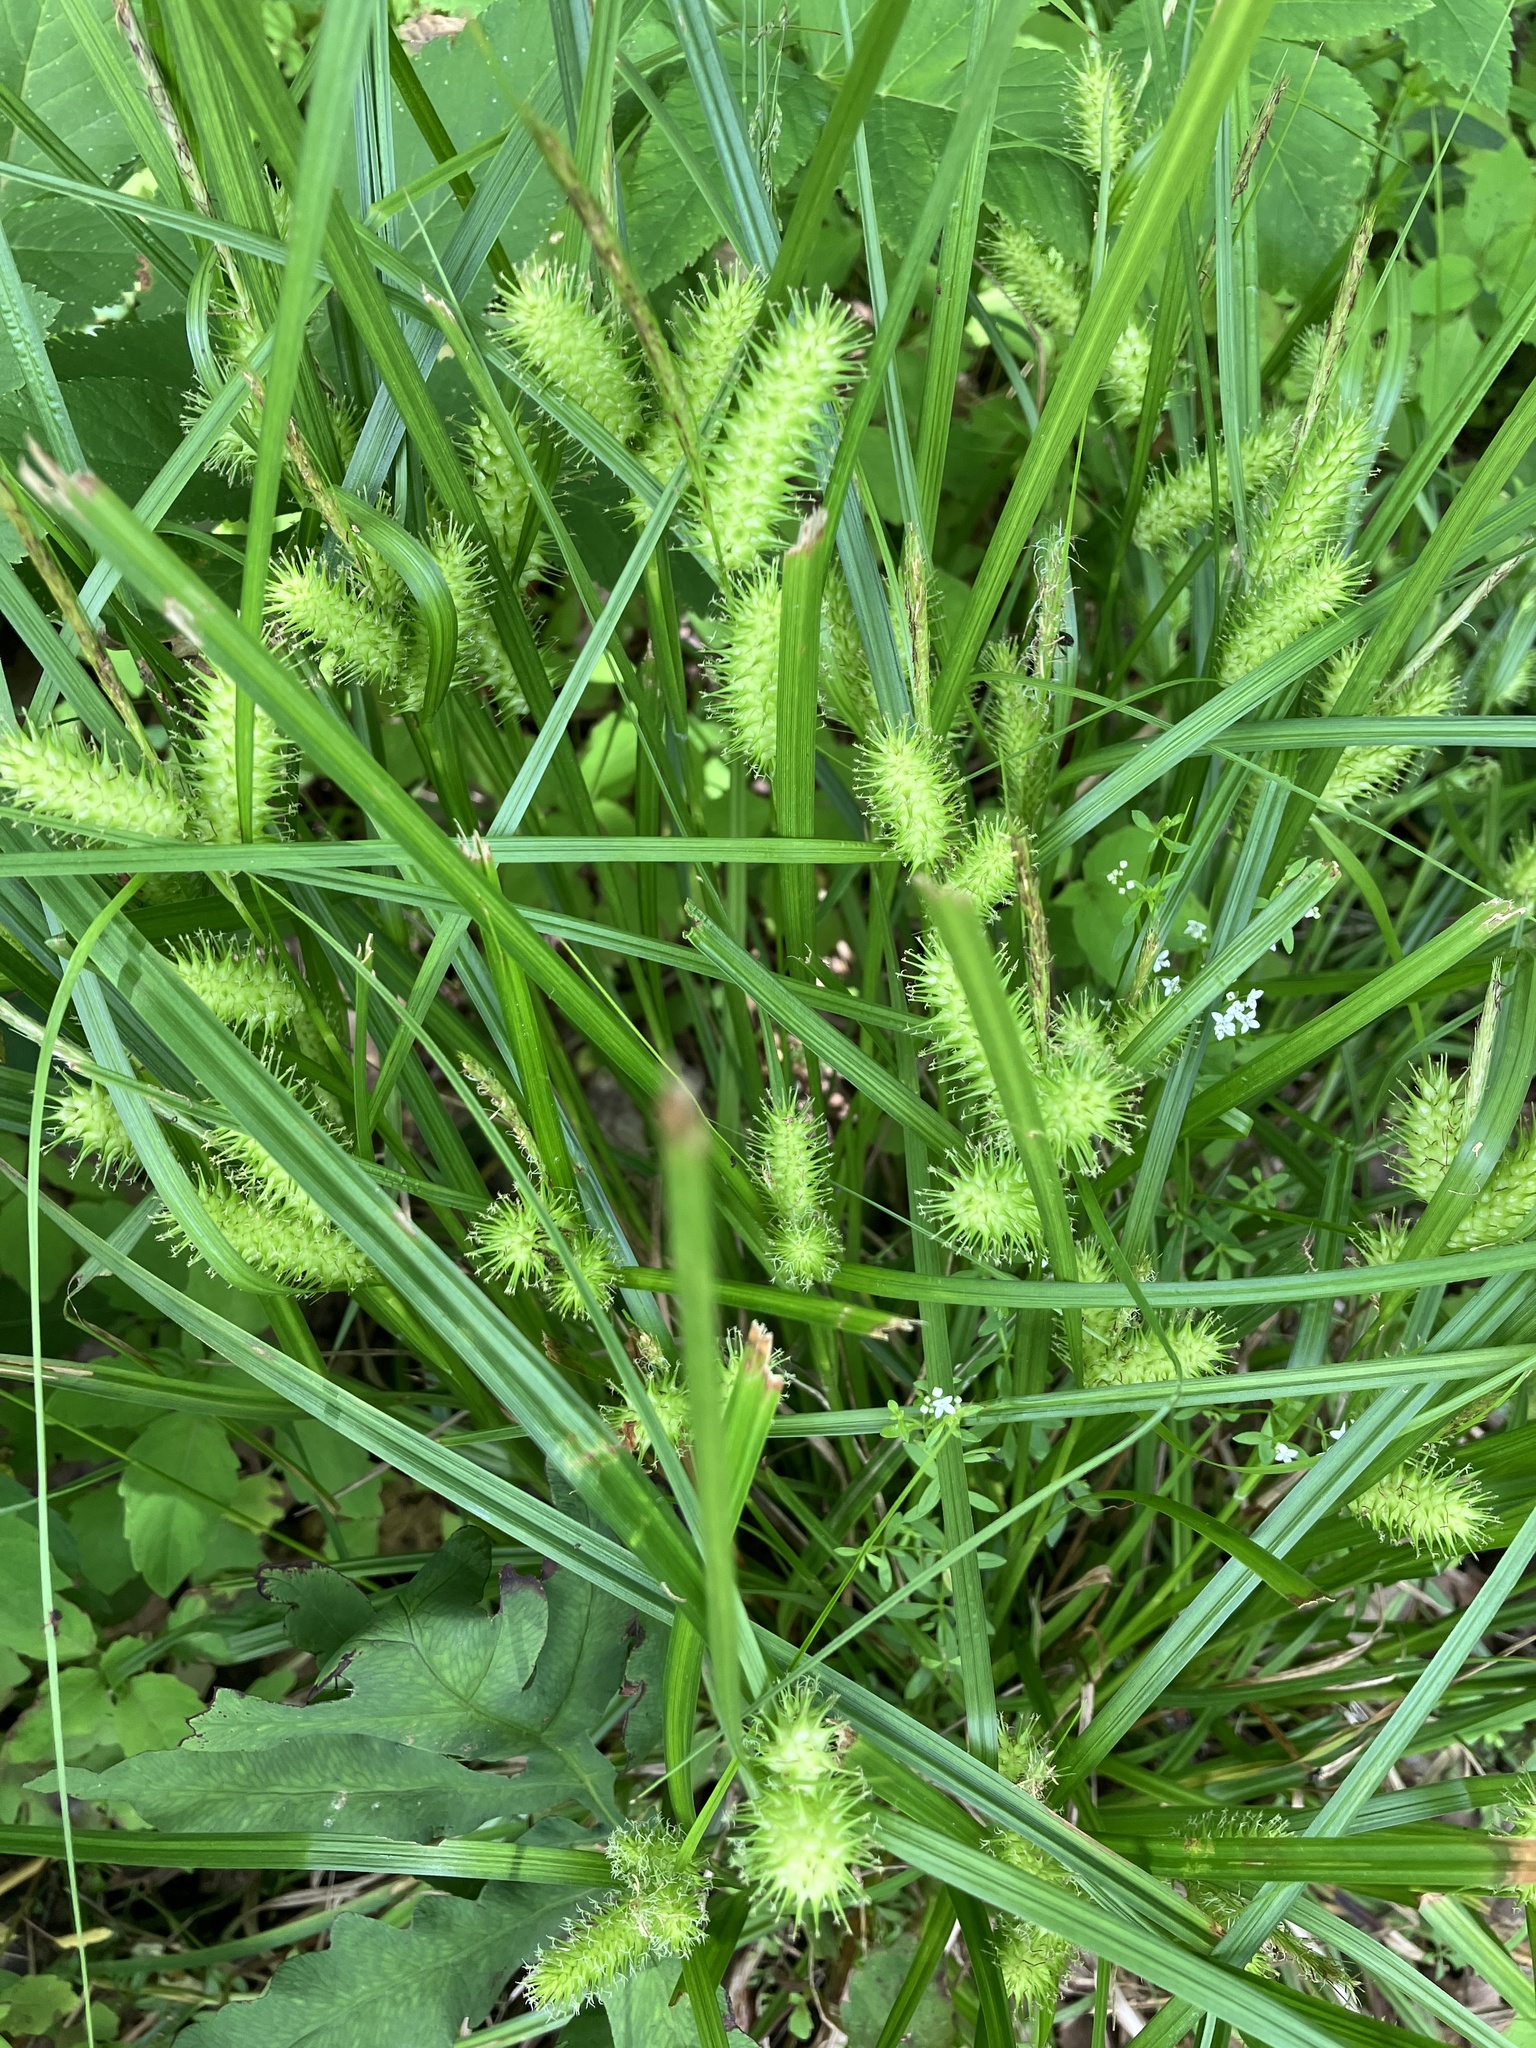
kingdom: Plantae
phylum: Tracheophyta
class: Liliopsida
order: Poales
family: Cyperaceae
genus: Carex
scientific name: Carex lurida
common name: Sallow sedge
